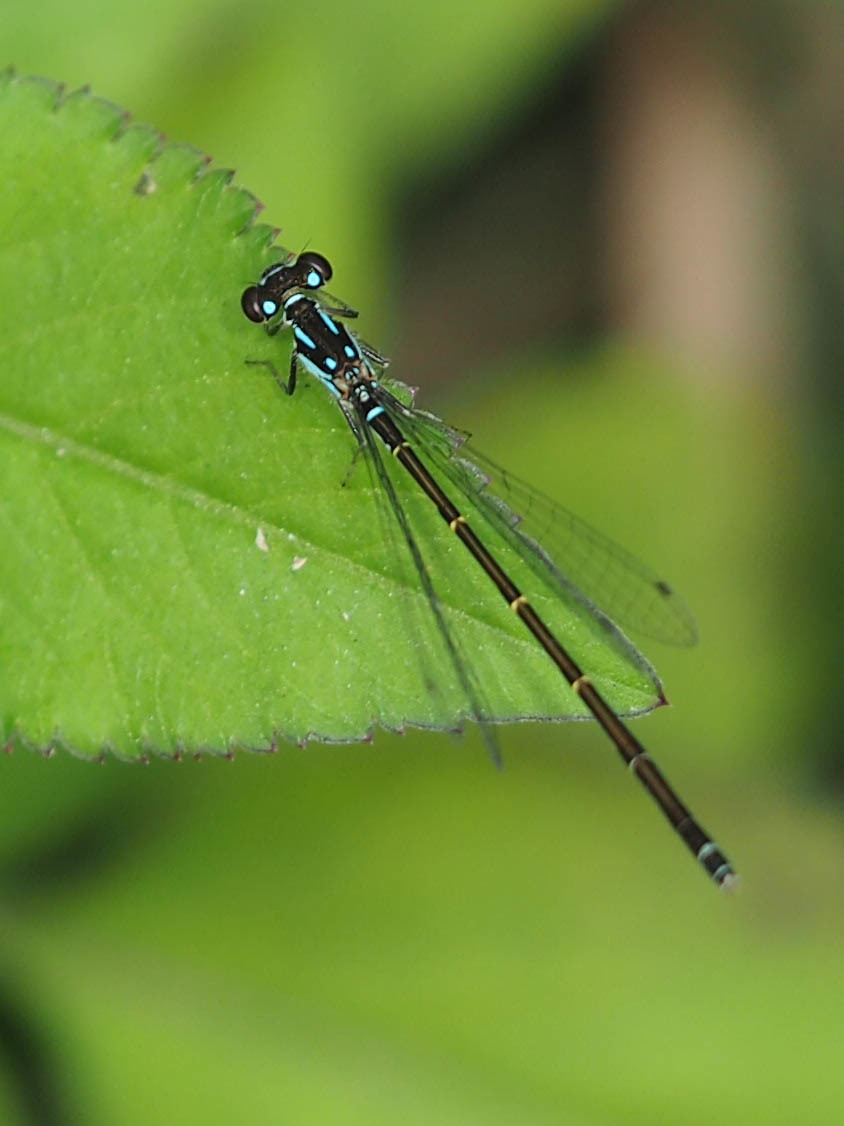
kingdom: Animalia
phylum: Arthropoda
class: Insecta
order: Odonata
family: Coenagrionidae
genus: Ischnura
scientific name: Ischnura posita
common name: Fragile forktail
